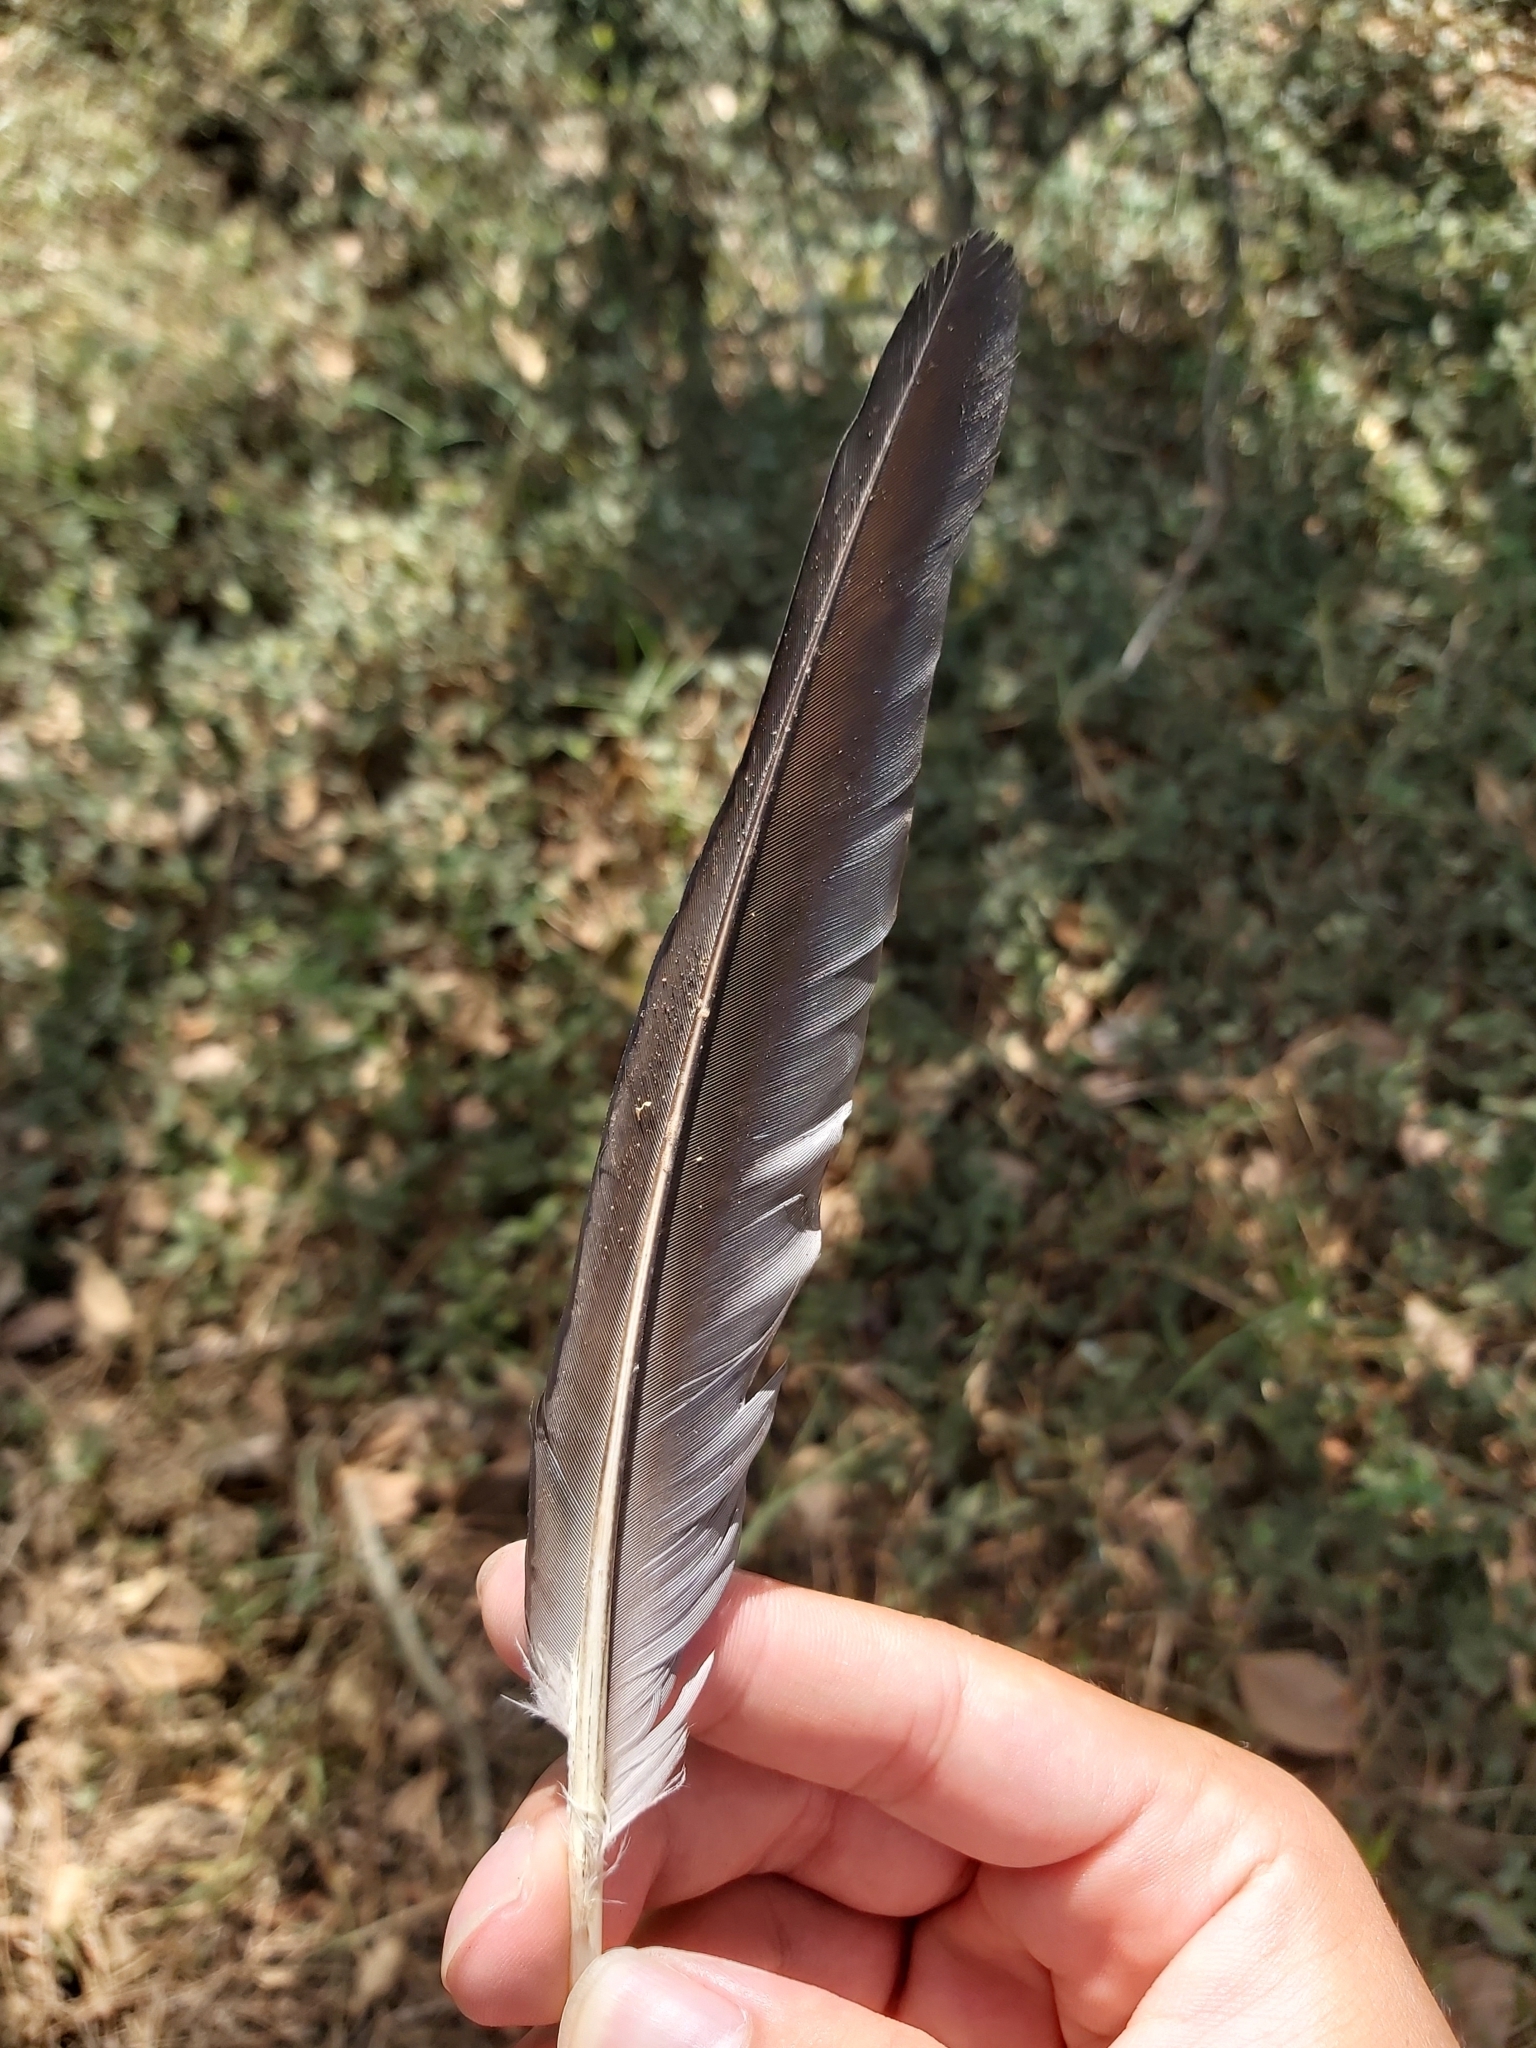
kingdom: Animalia
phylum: Chordata
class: Aves
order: Columbiformes
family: Columbidae
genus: Lopholaimus
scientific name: Lopholaimus antarcticus
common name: Topknot pigeon
